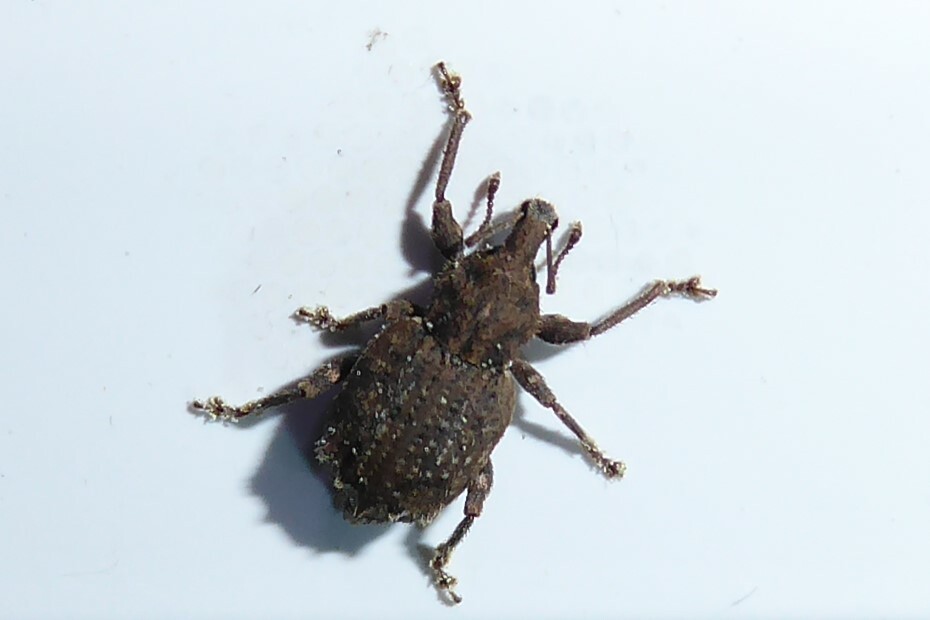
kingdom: Animalia
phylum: Arthropoda
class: Insecta
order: Coleoptera
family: Curculionidae
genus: Chalepistes
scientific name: Chalepistes rubidus
